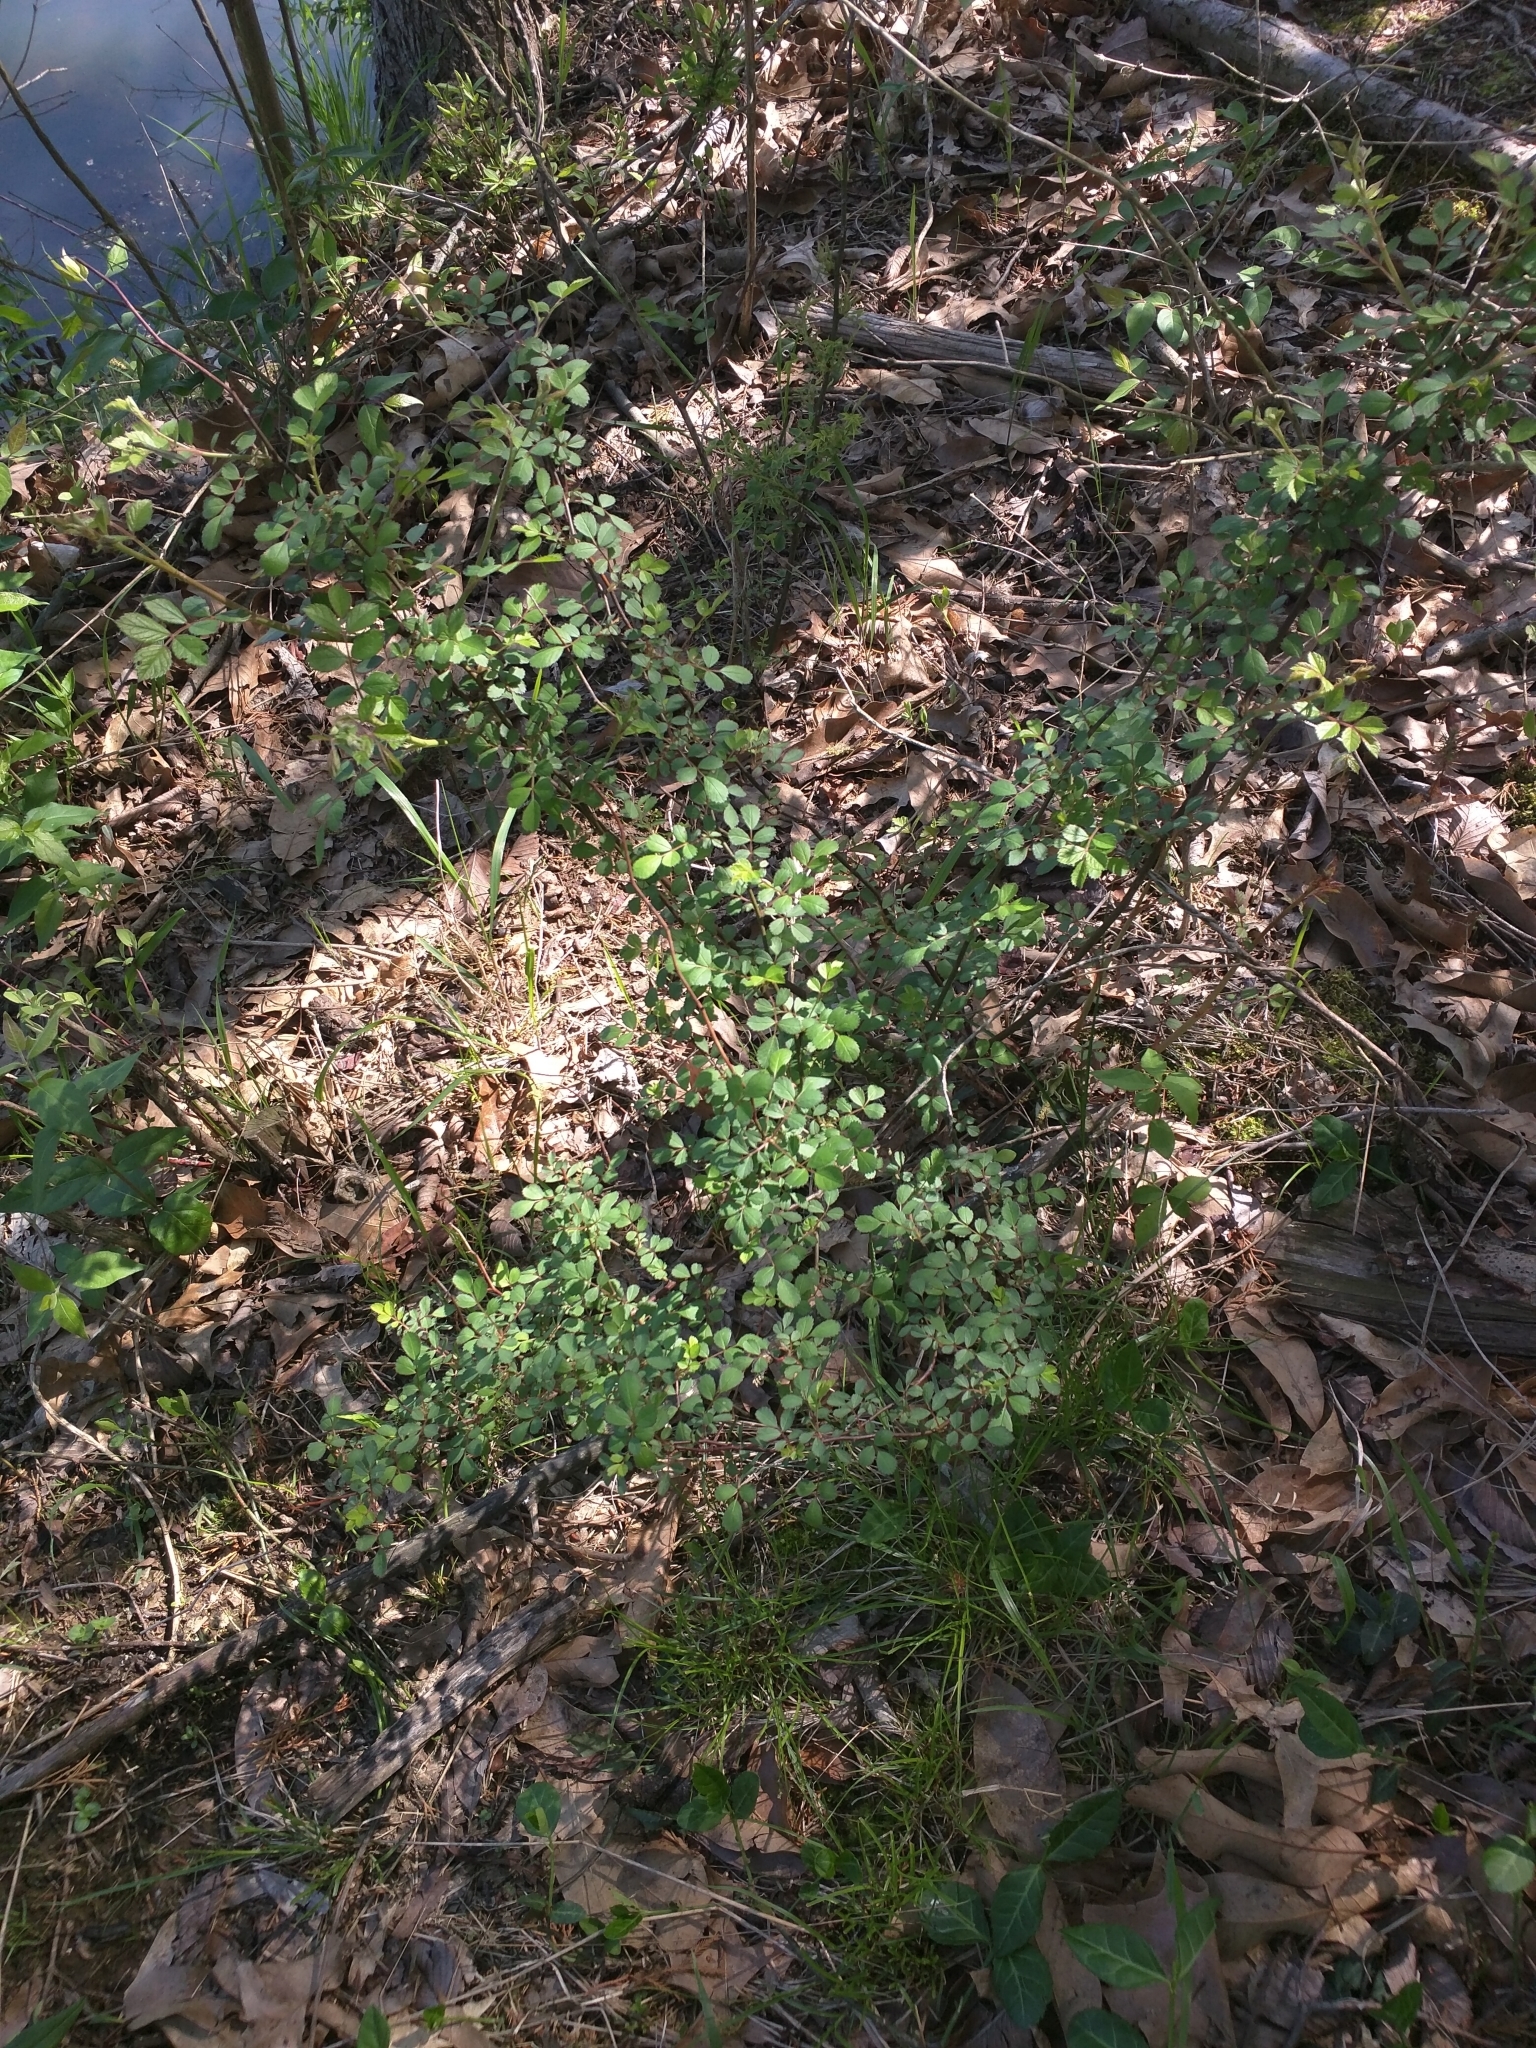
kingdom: Plantae
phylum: Tracheophyta
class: Magnoliopsida
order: Rosales
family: Rosaceae
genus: Rosa
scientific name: Rosa multiflora
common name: Multiflora rose
